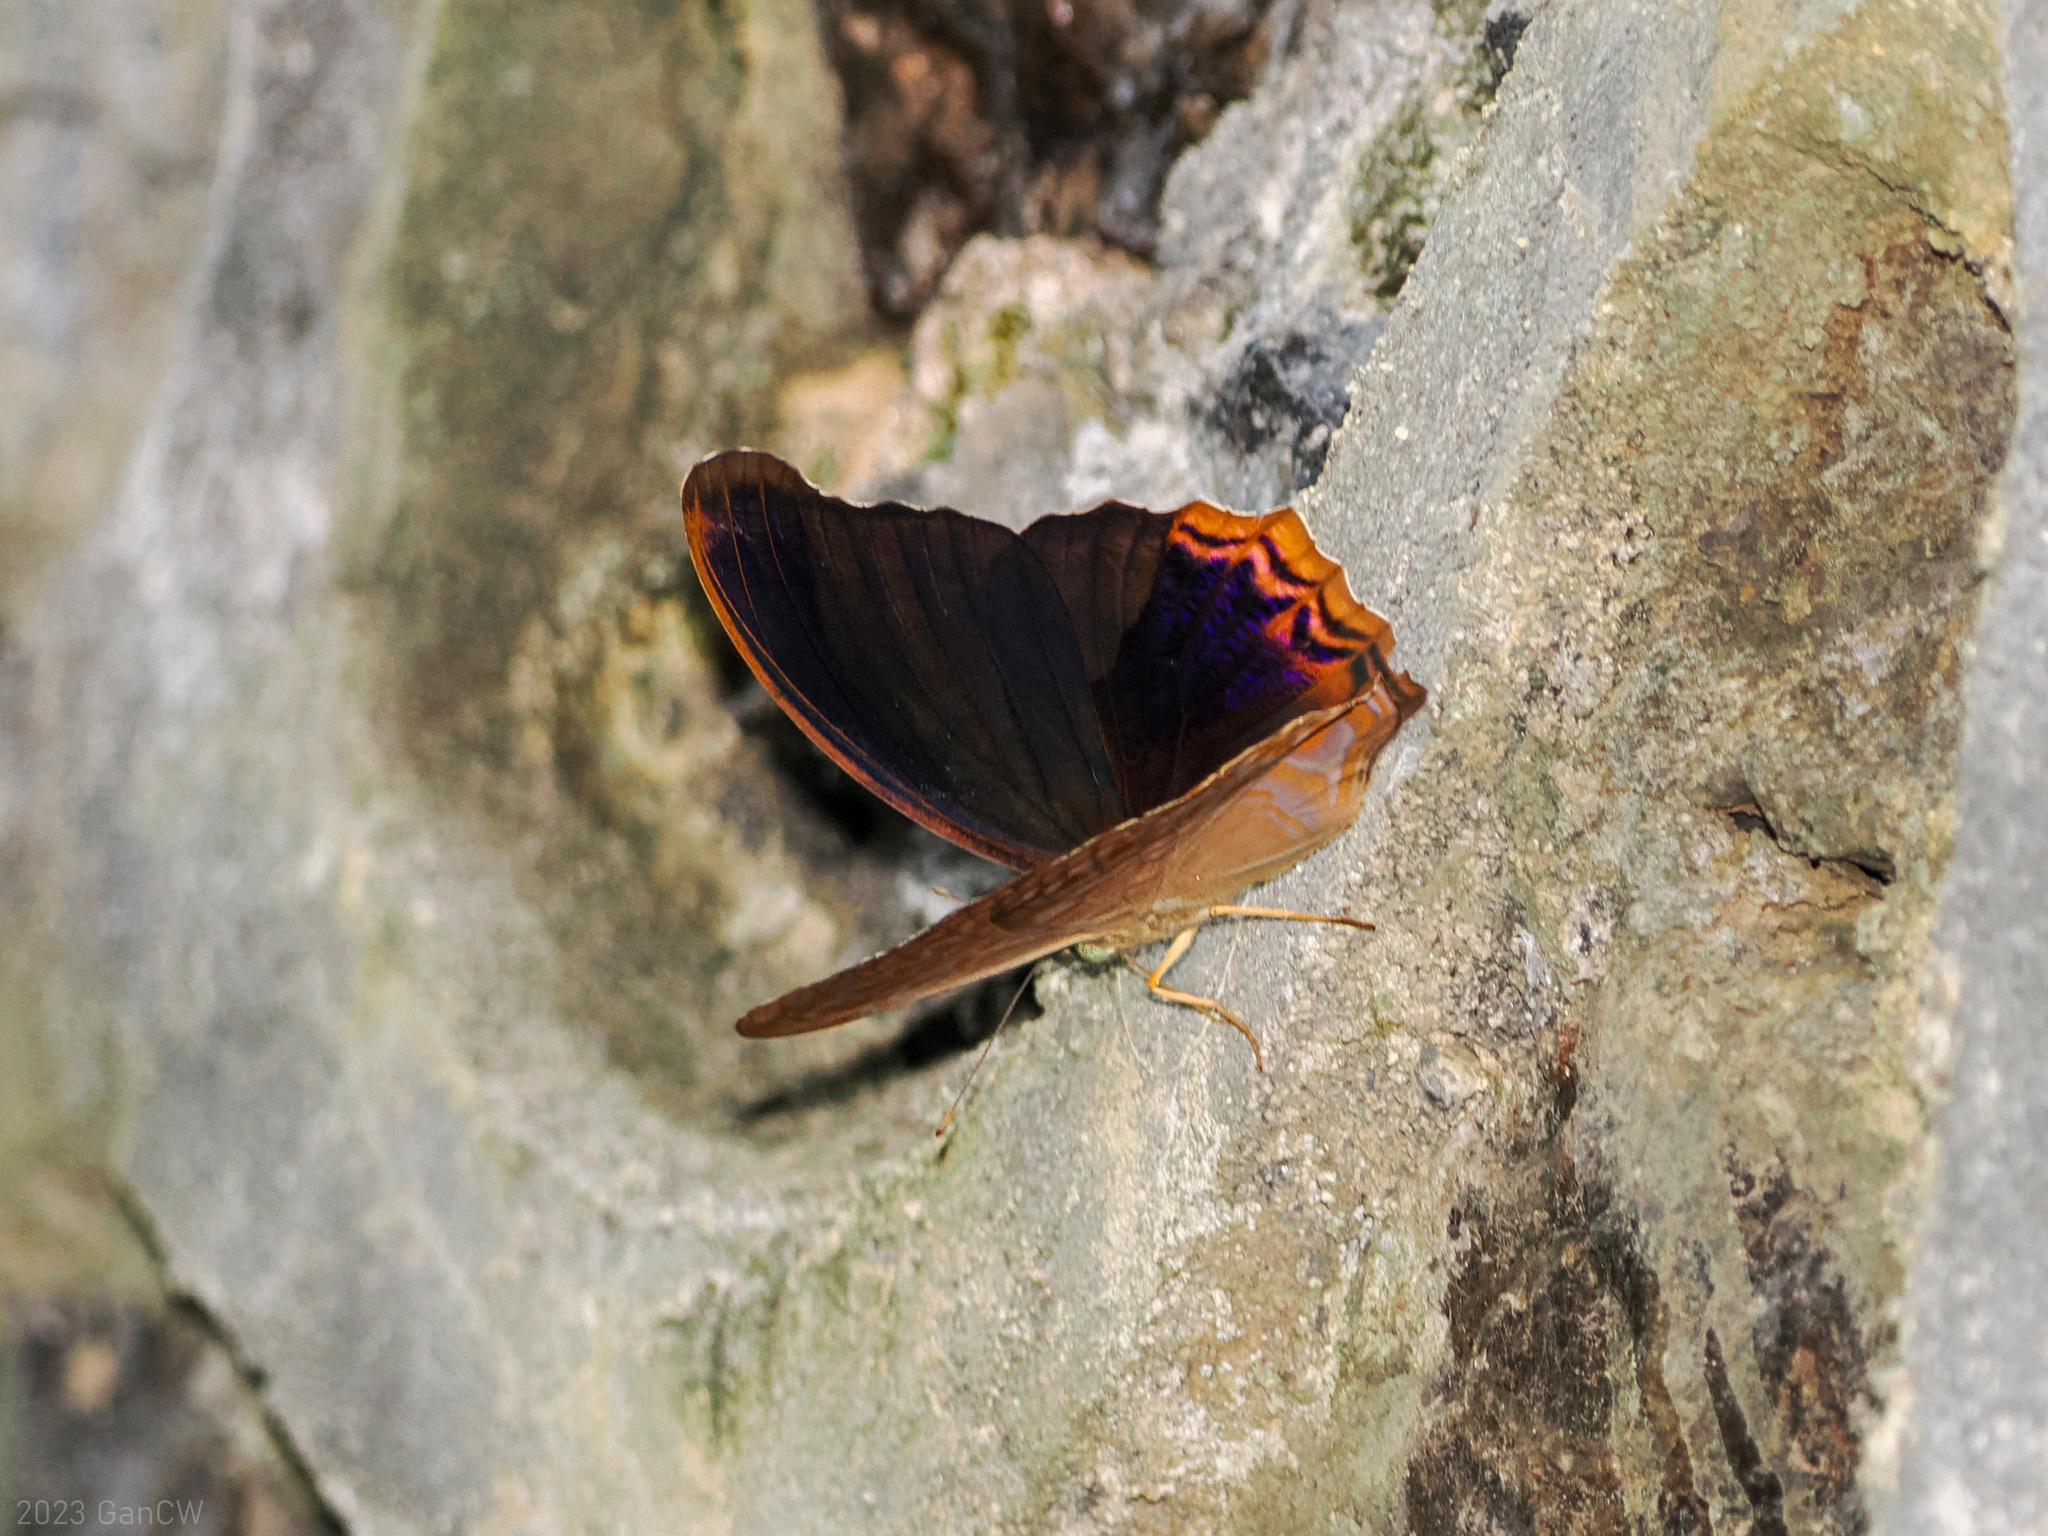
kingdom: Animalia
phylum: Arthropoda
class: Insecta
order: Lepidoptera
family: Nymphalidae
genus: Terinos
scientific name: Terinos taxiles
